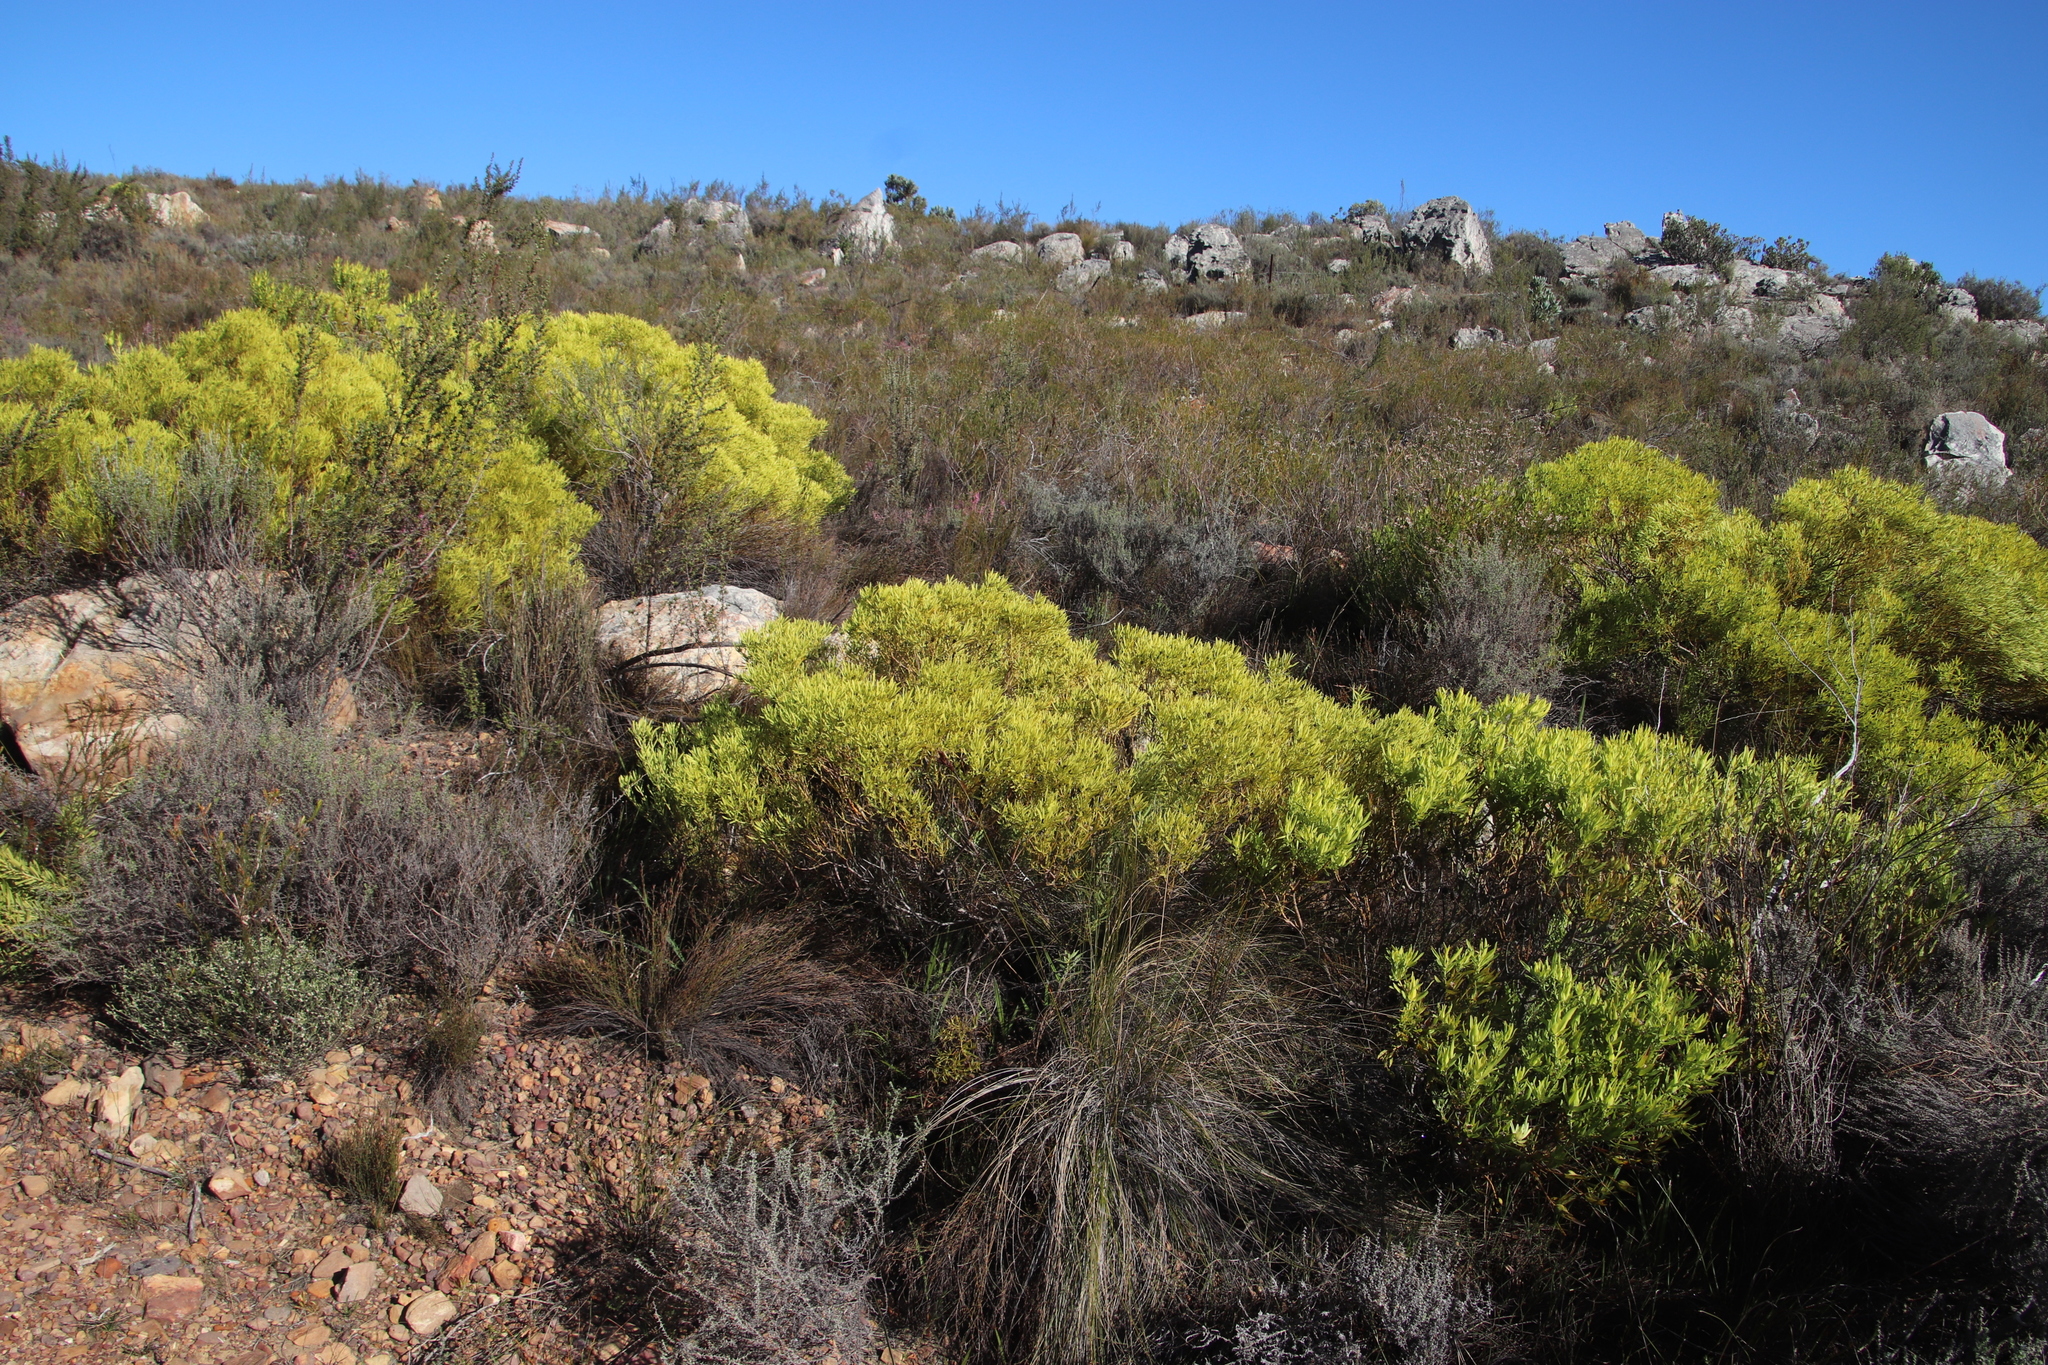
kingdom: Plantae
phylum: Tracheophyta
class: Magnoliopsida
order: Proteales
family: Proteaceae
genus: Leucadendron
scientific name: Leucadendron salignum
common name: Common sunshine conebush
